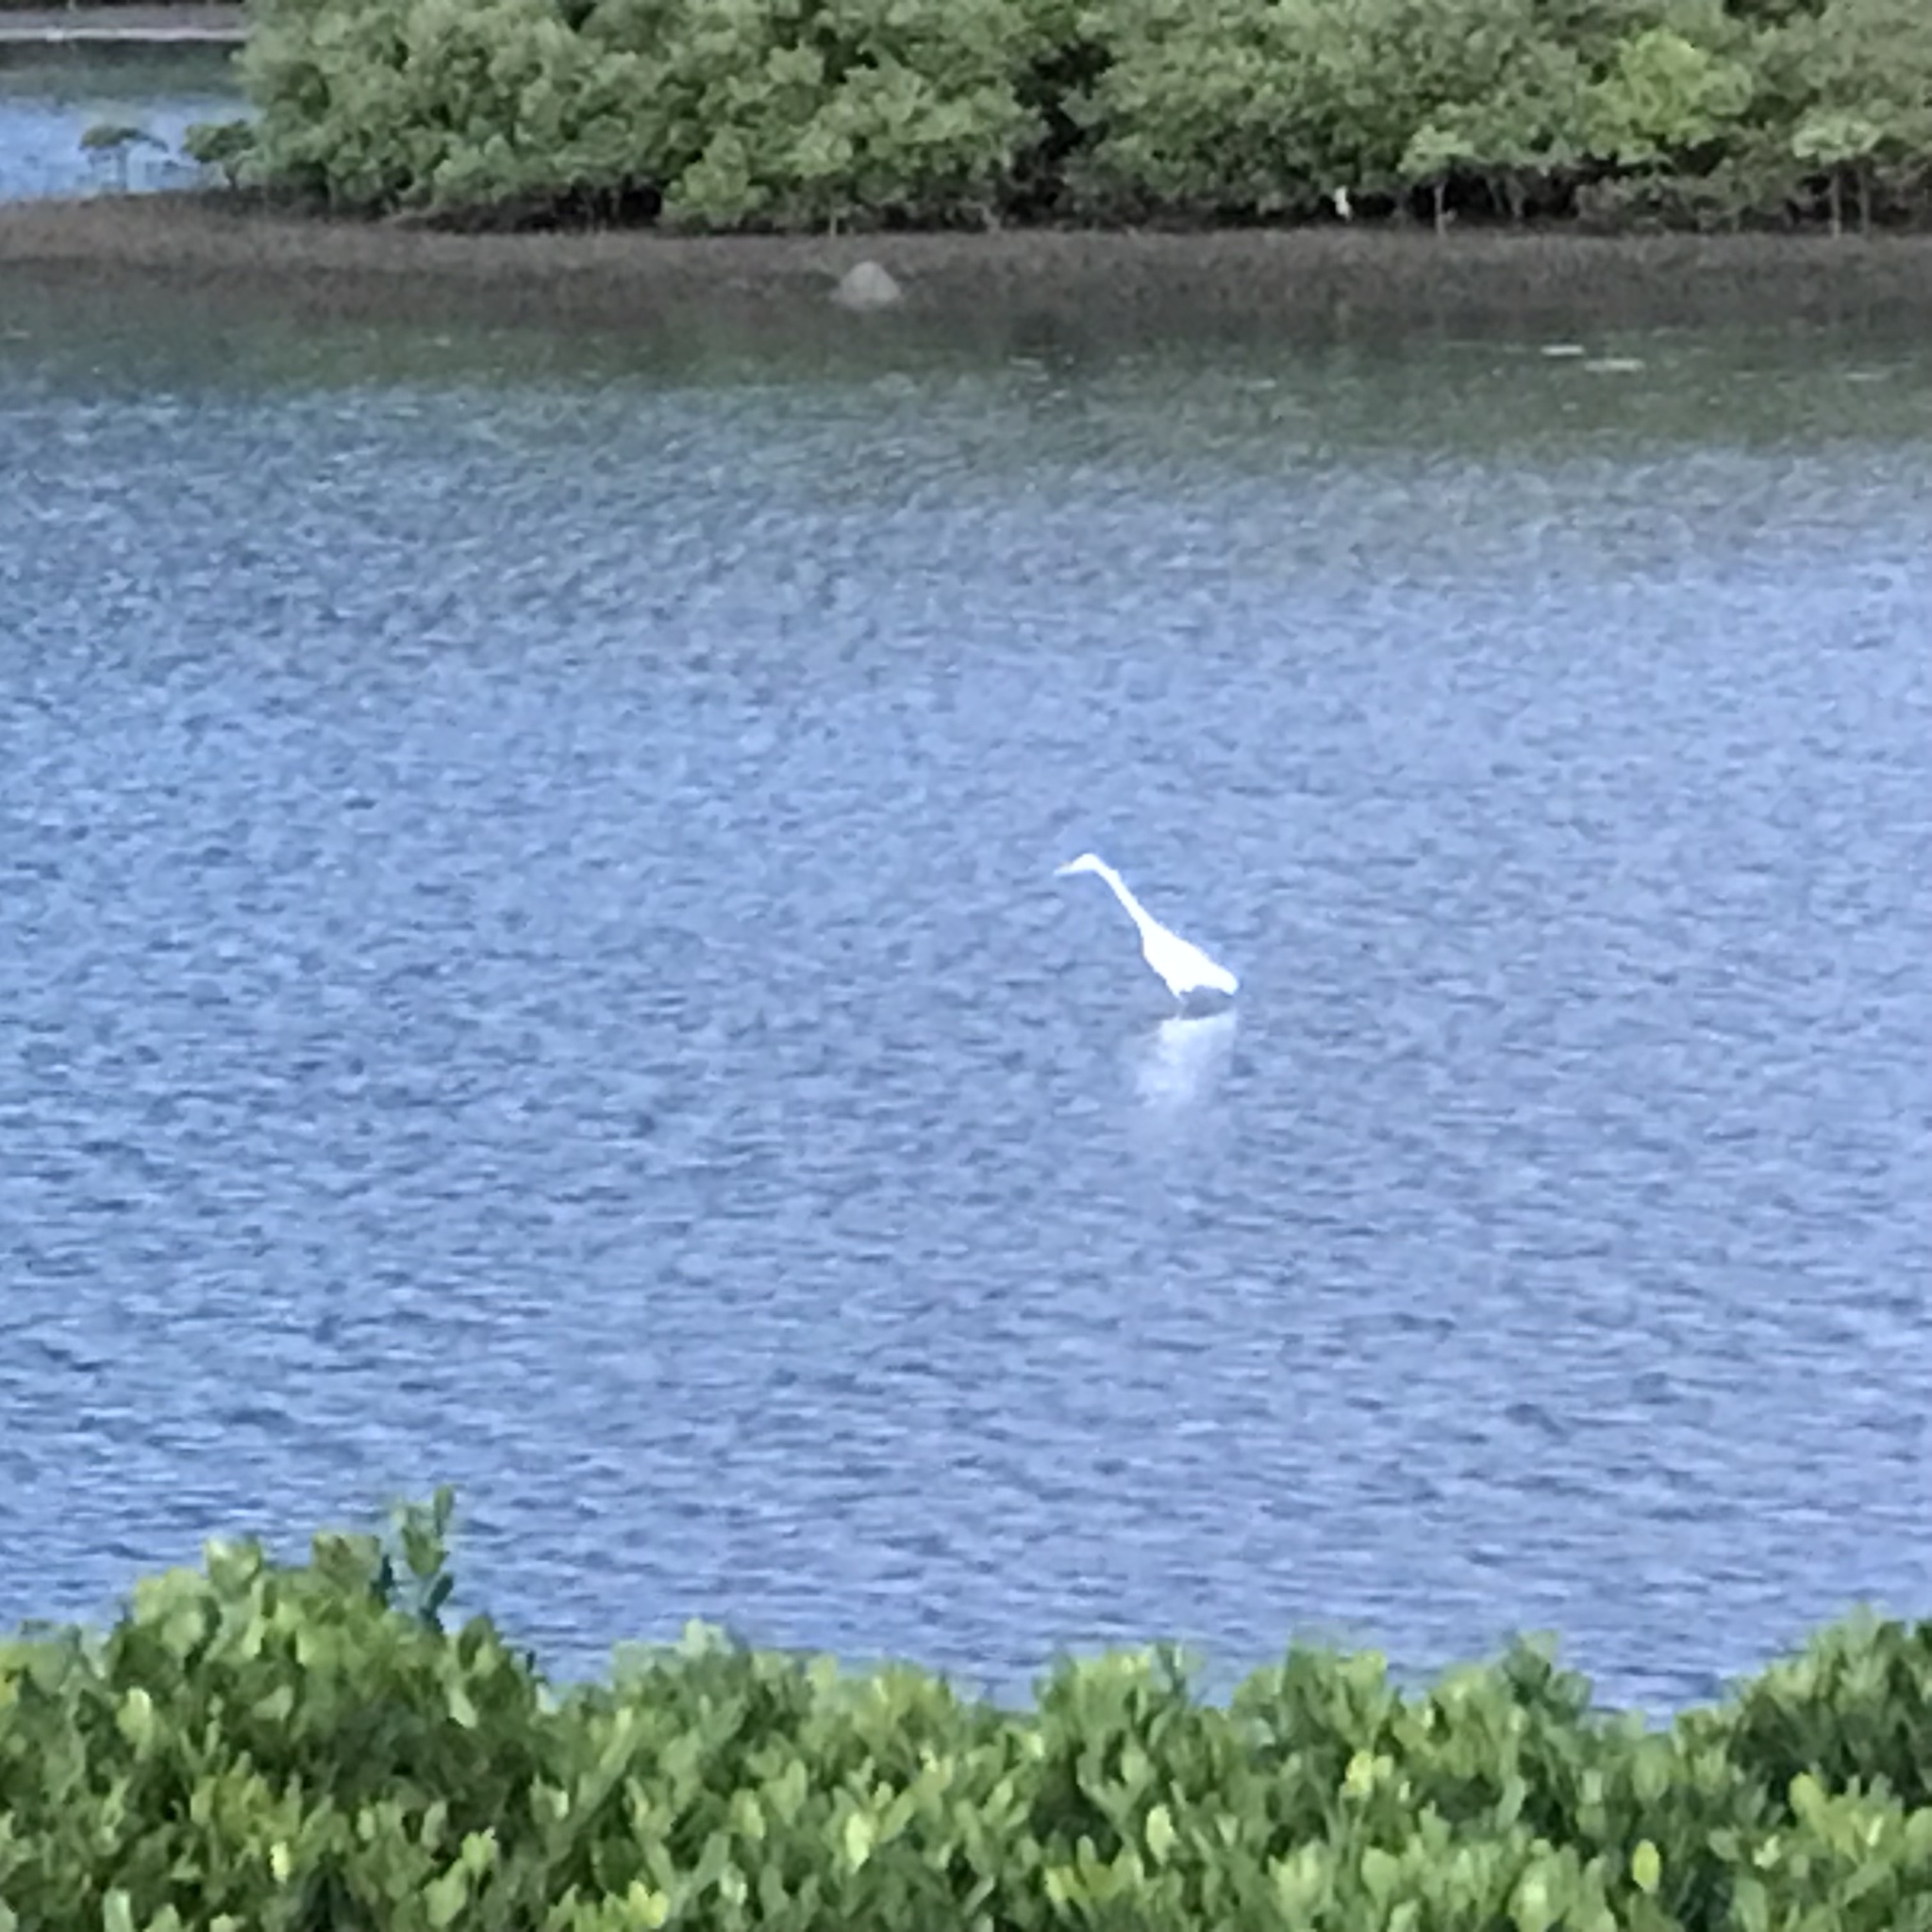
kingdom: Animalia
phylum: Chordata
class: Aves
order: Pelecaniformes
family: Ardeidae
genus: Ardea
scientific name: Ardea alba
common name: Great egret
